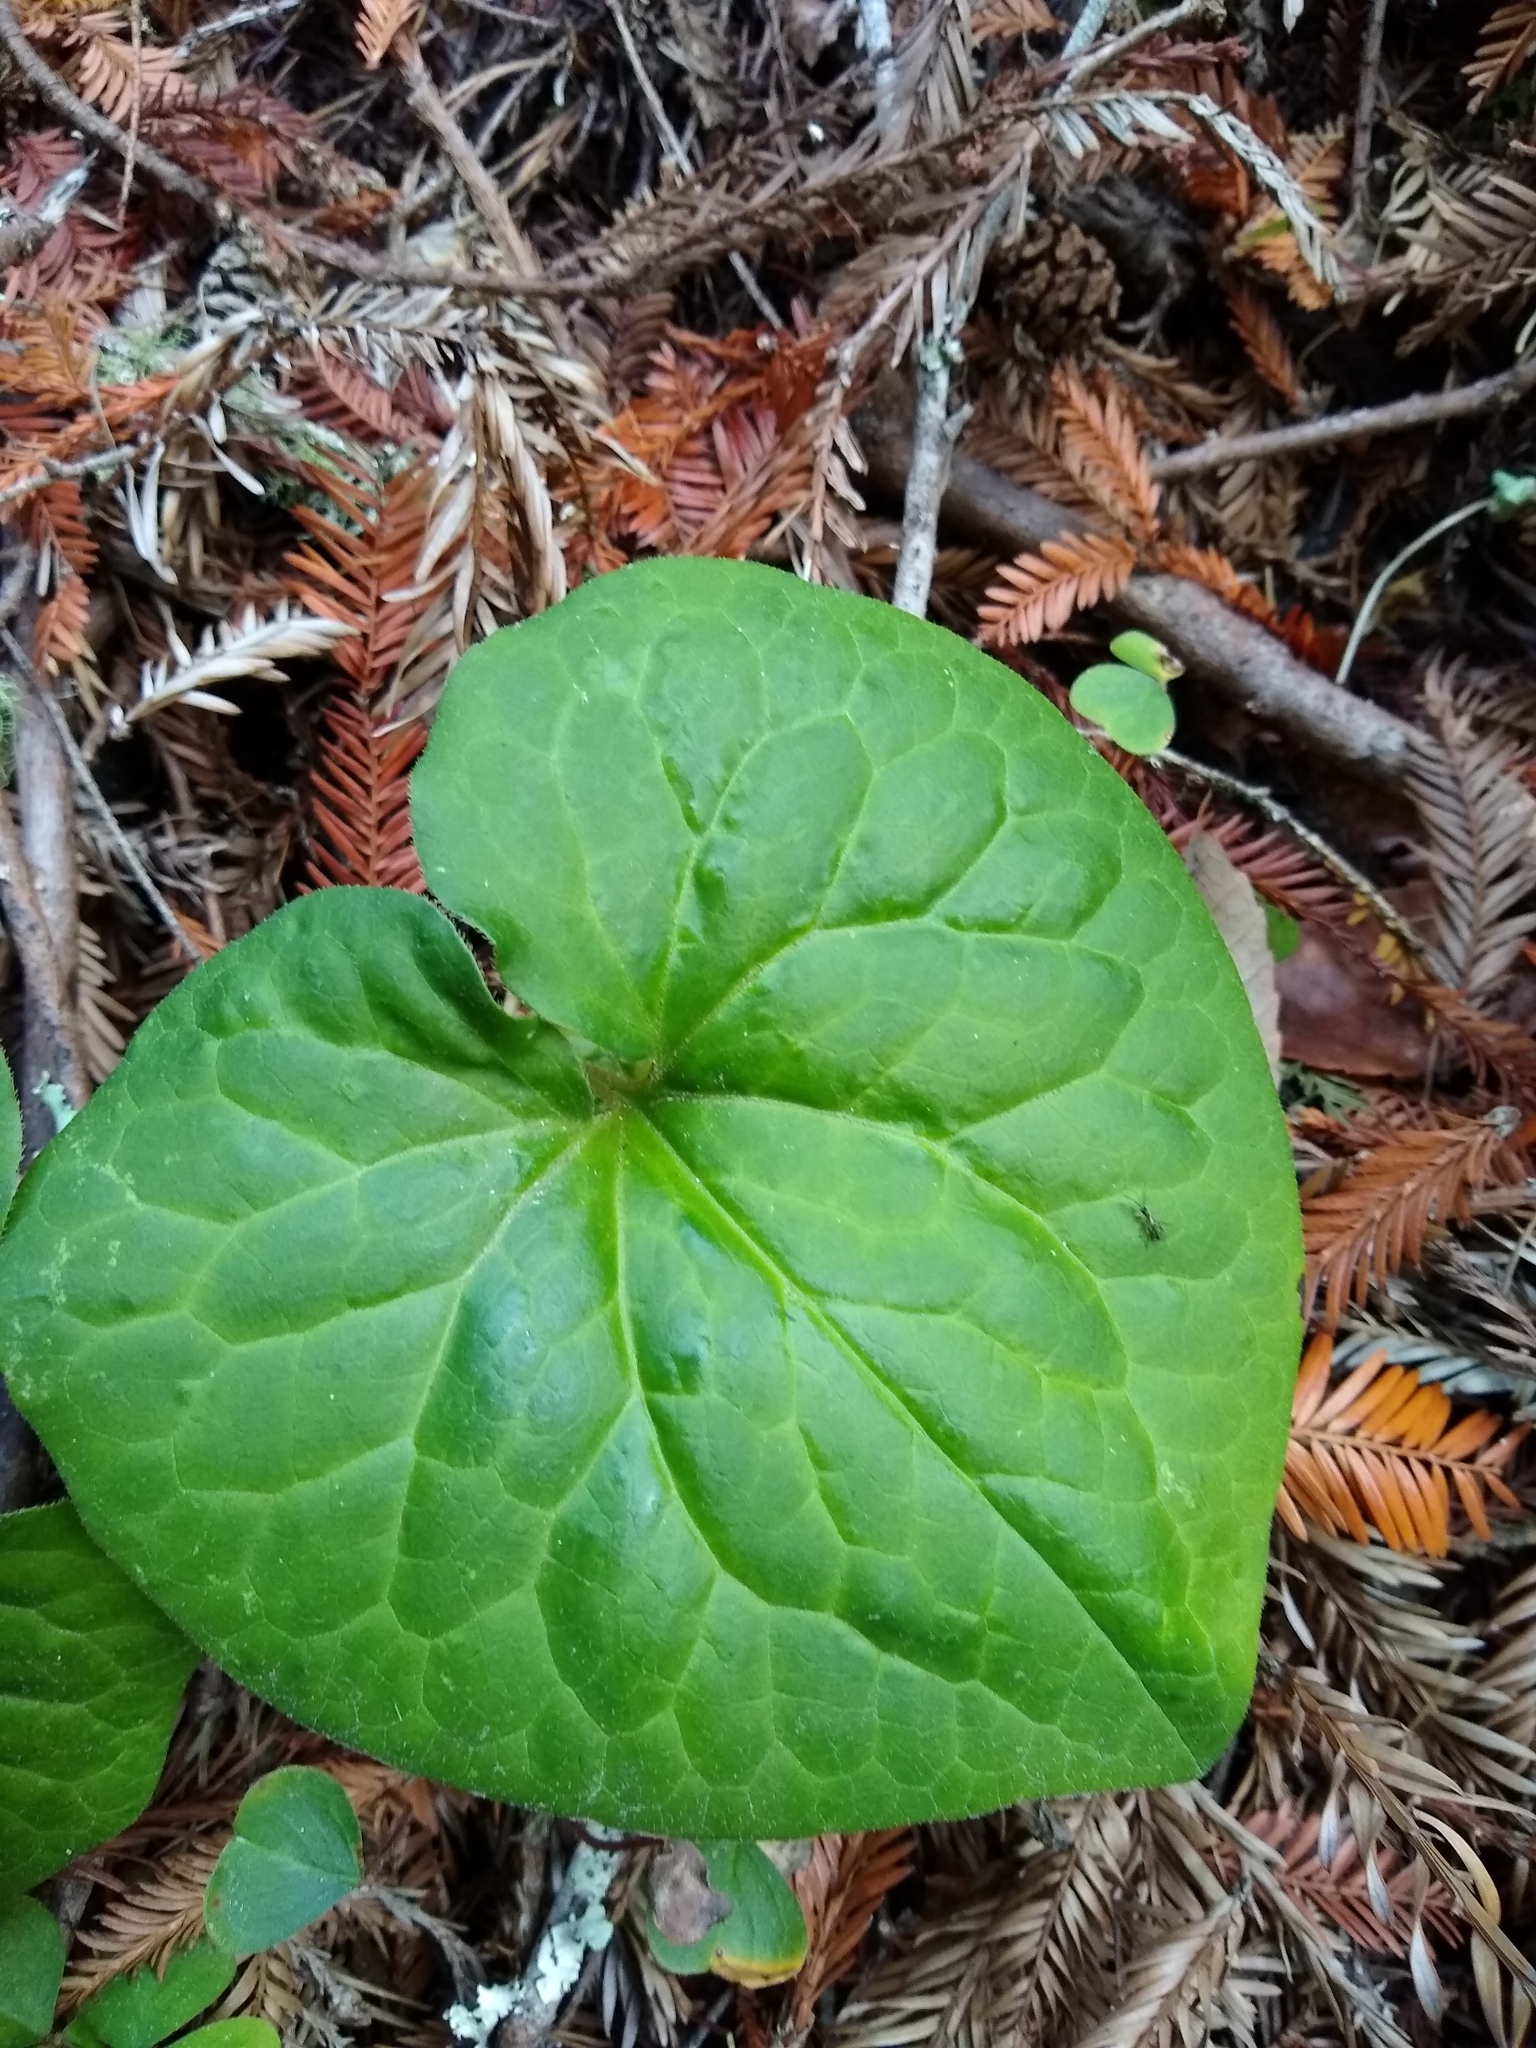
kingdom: Plantae
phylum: Tracheophyta
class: Magnoliopsida
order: Piperales
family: Aristolochiaceae
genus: Asarum
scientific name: Asarum caudatum
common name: Wild ginger
